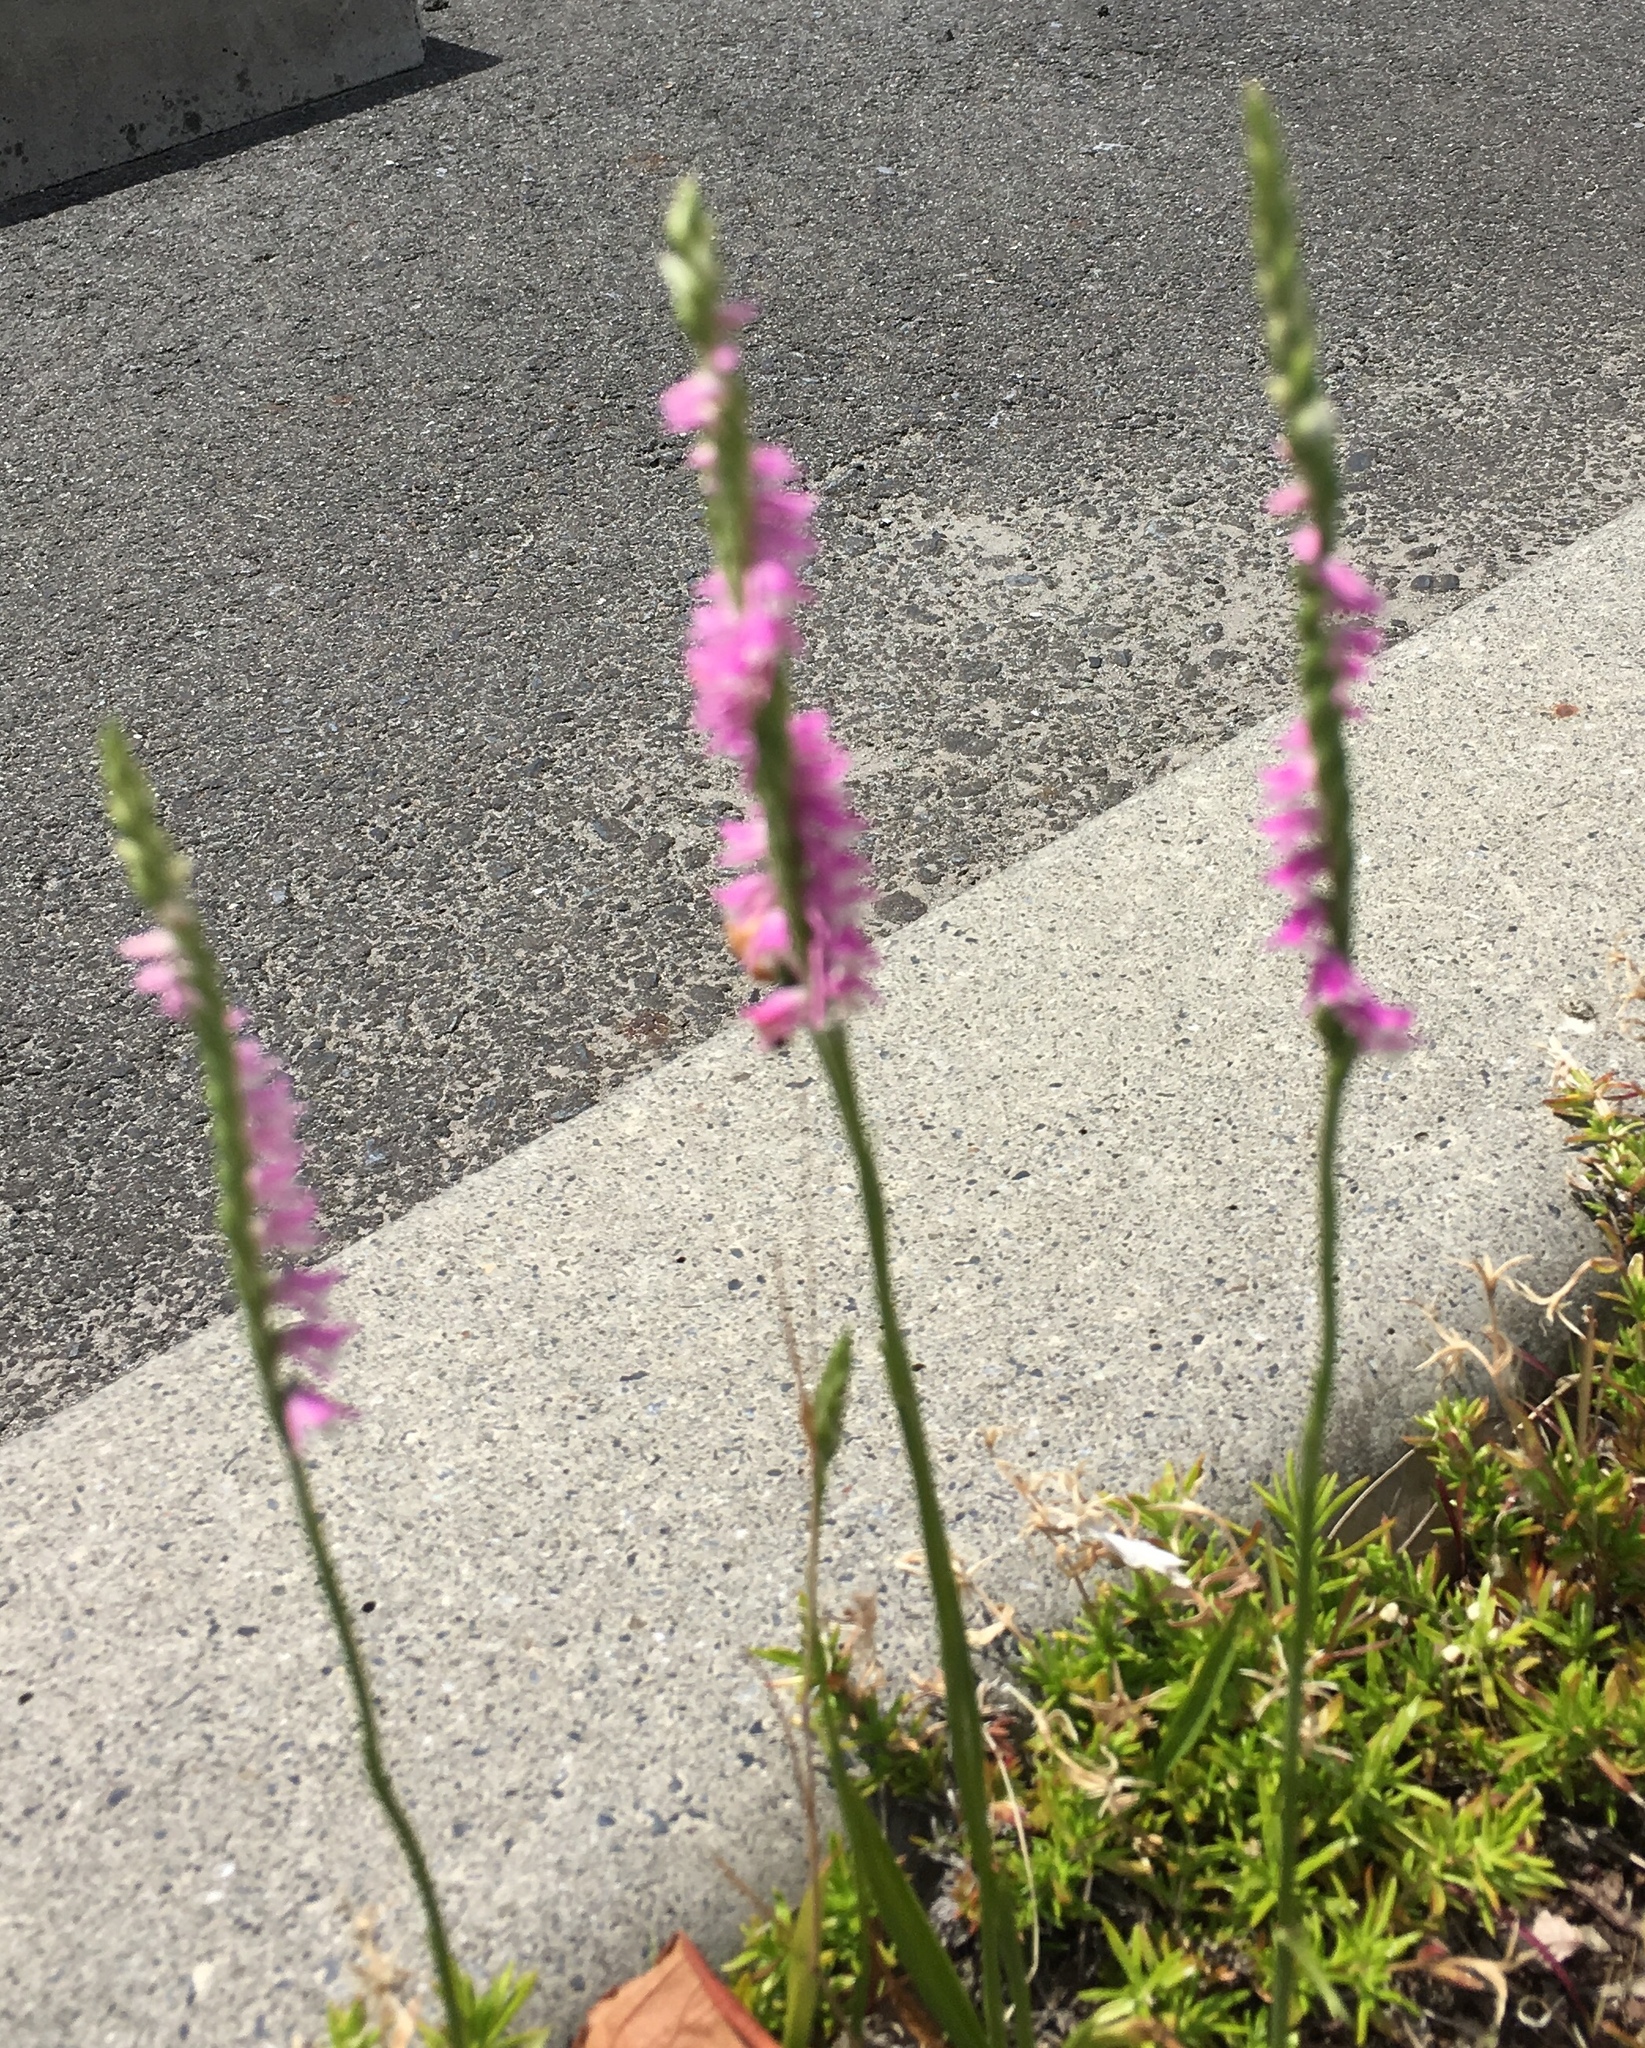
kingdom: Plantae
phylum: Tracheophyta
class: Liliopsida
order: Asparagales
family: Orchidaceae
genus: Spiranthes
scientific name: Spiranthes australis
